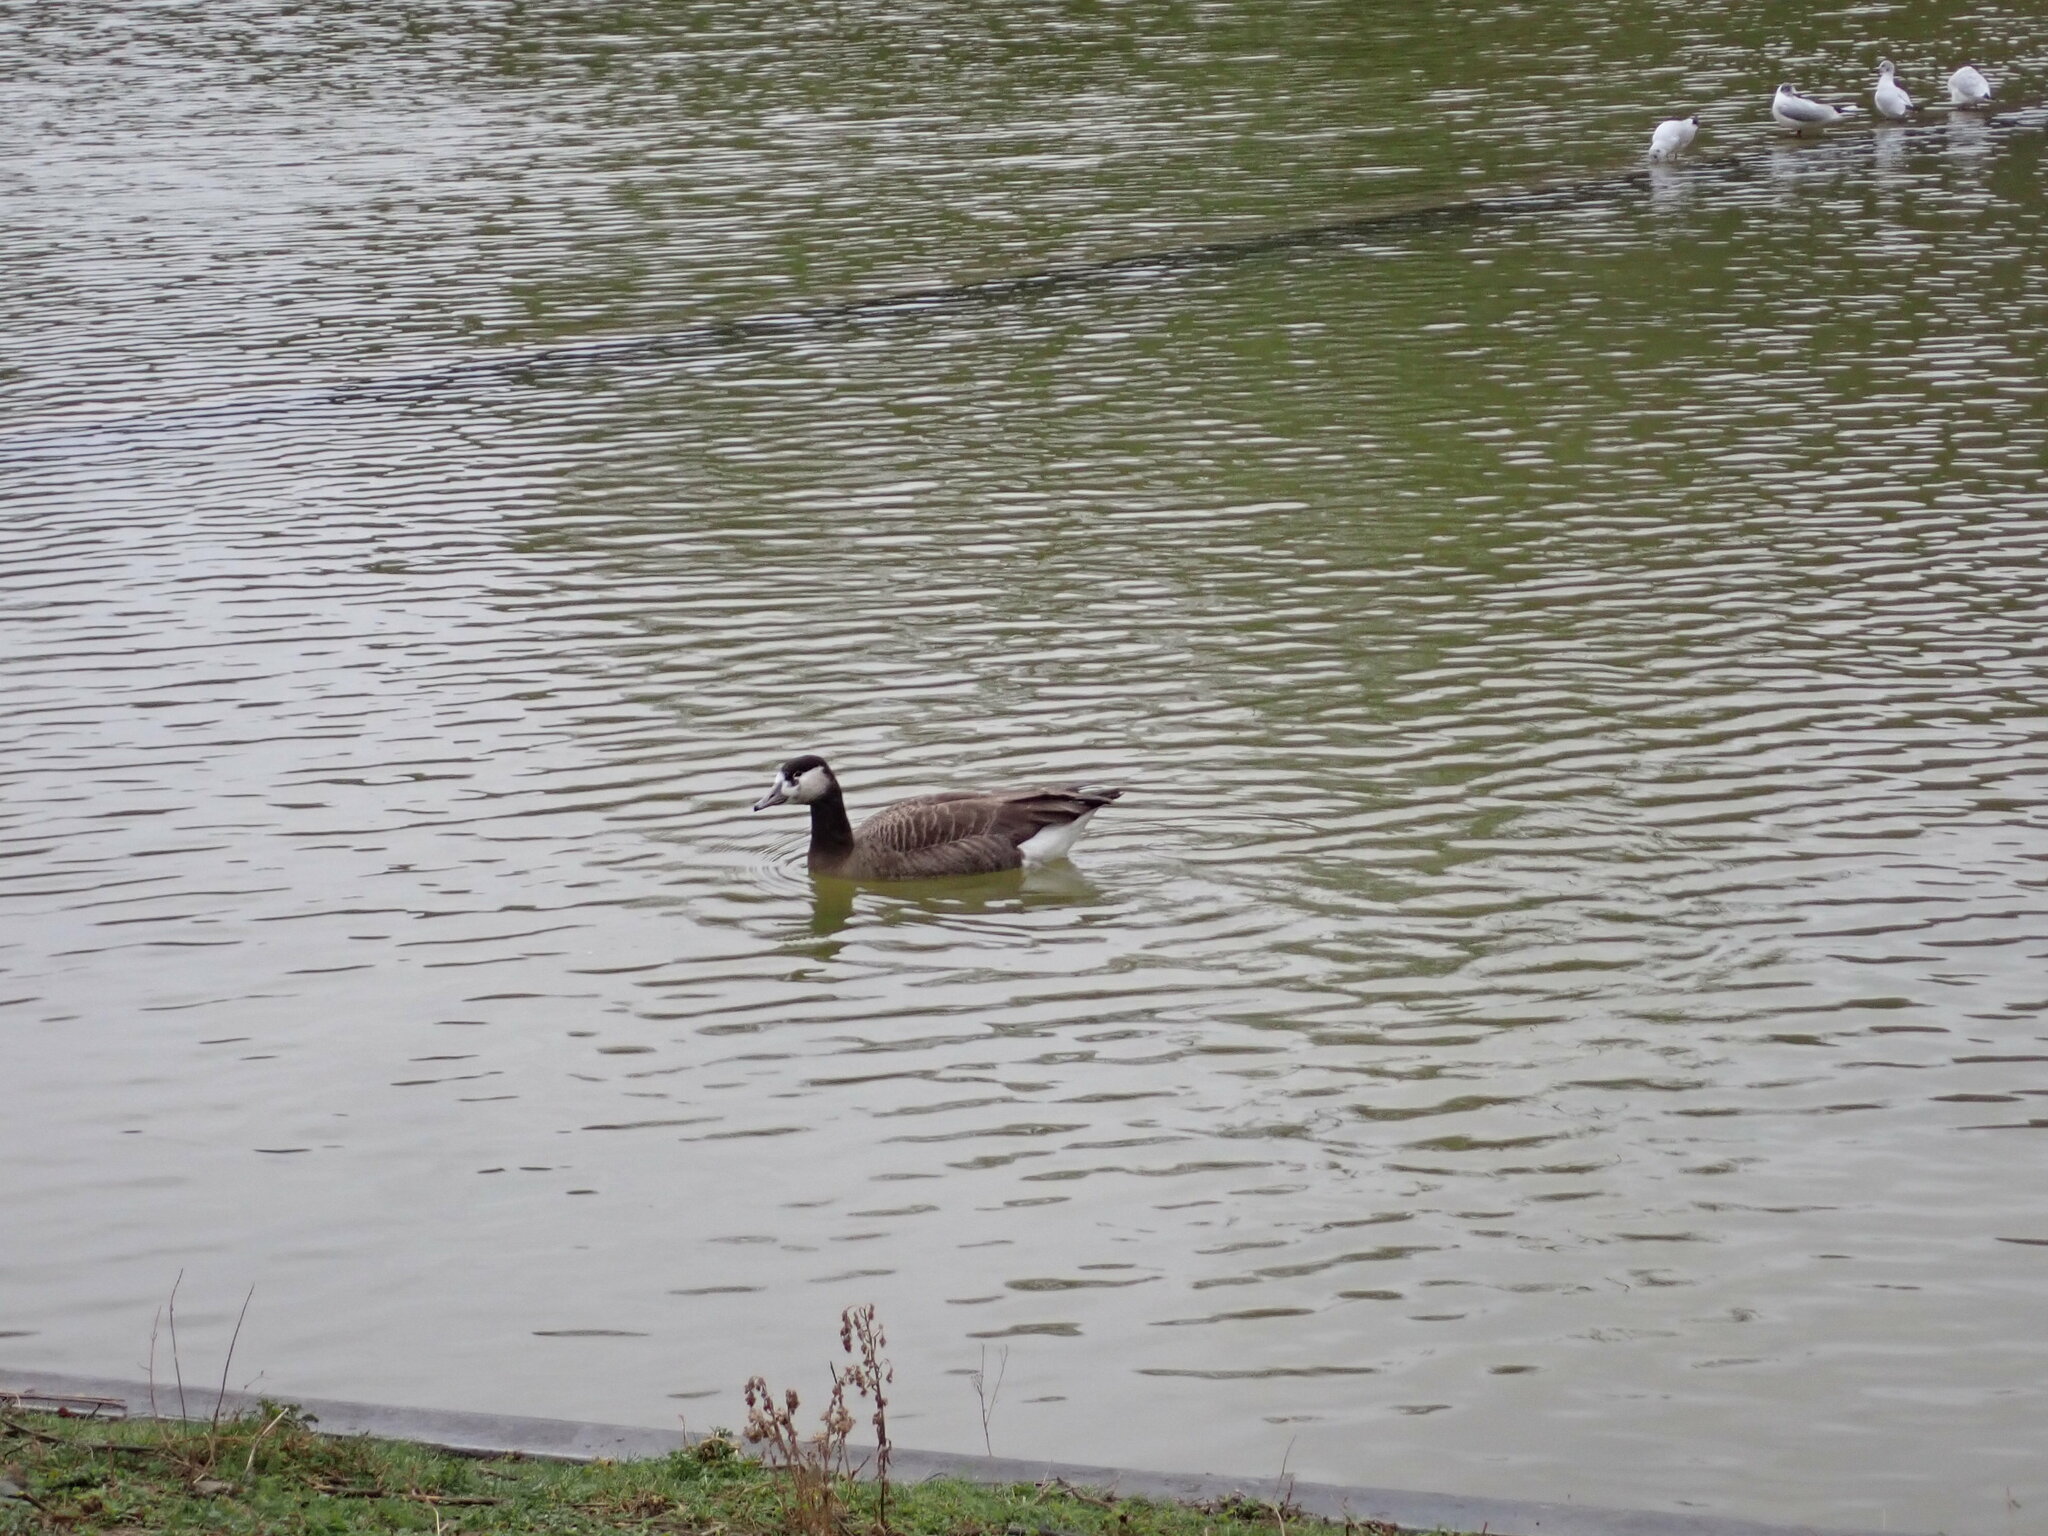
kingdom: Animalia
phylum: Chordata
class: Aves
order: Anseriformes
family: Anatidae
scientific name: Anatidae
